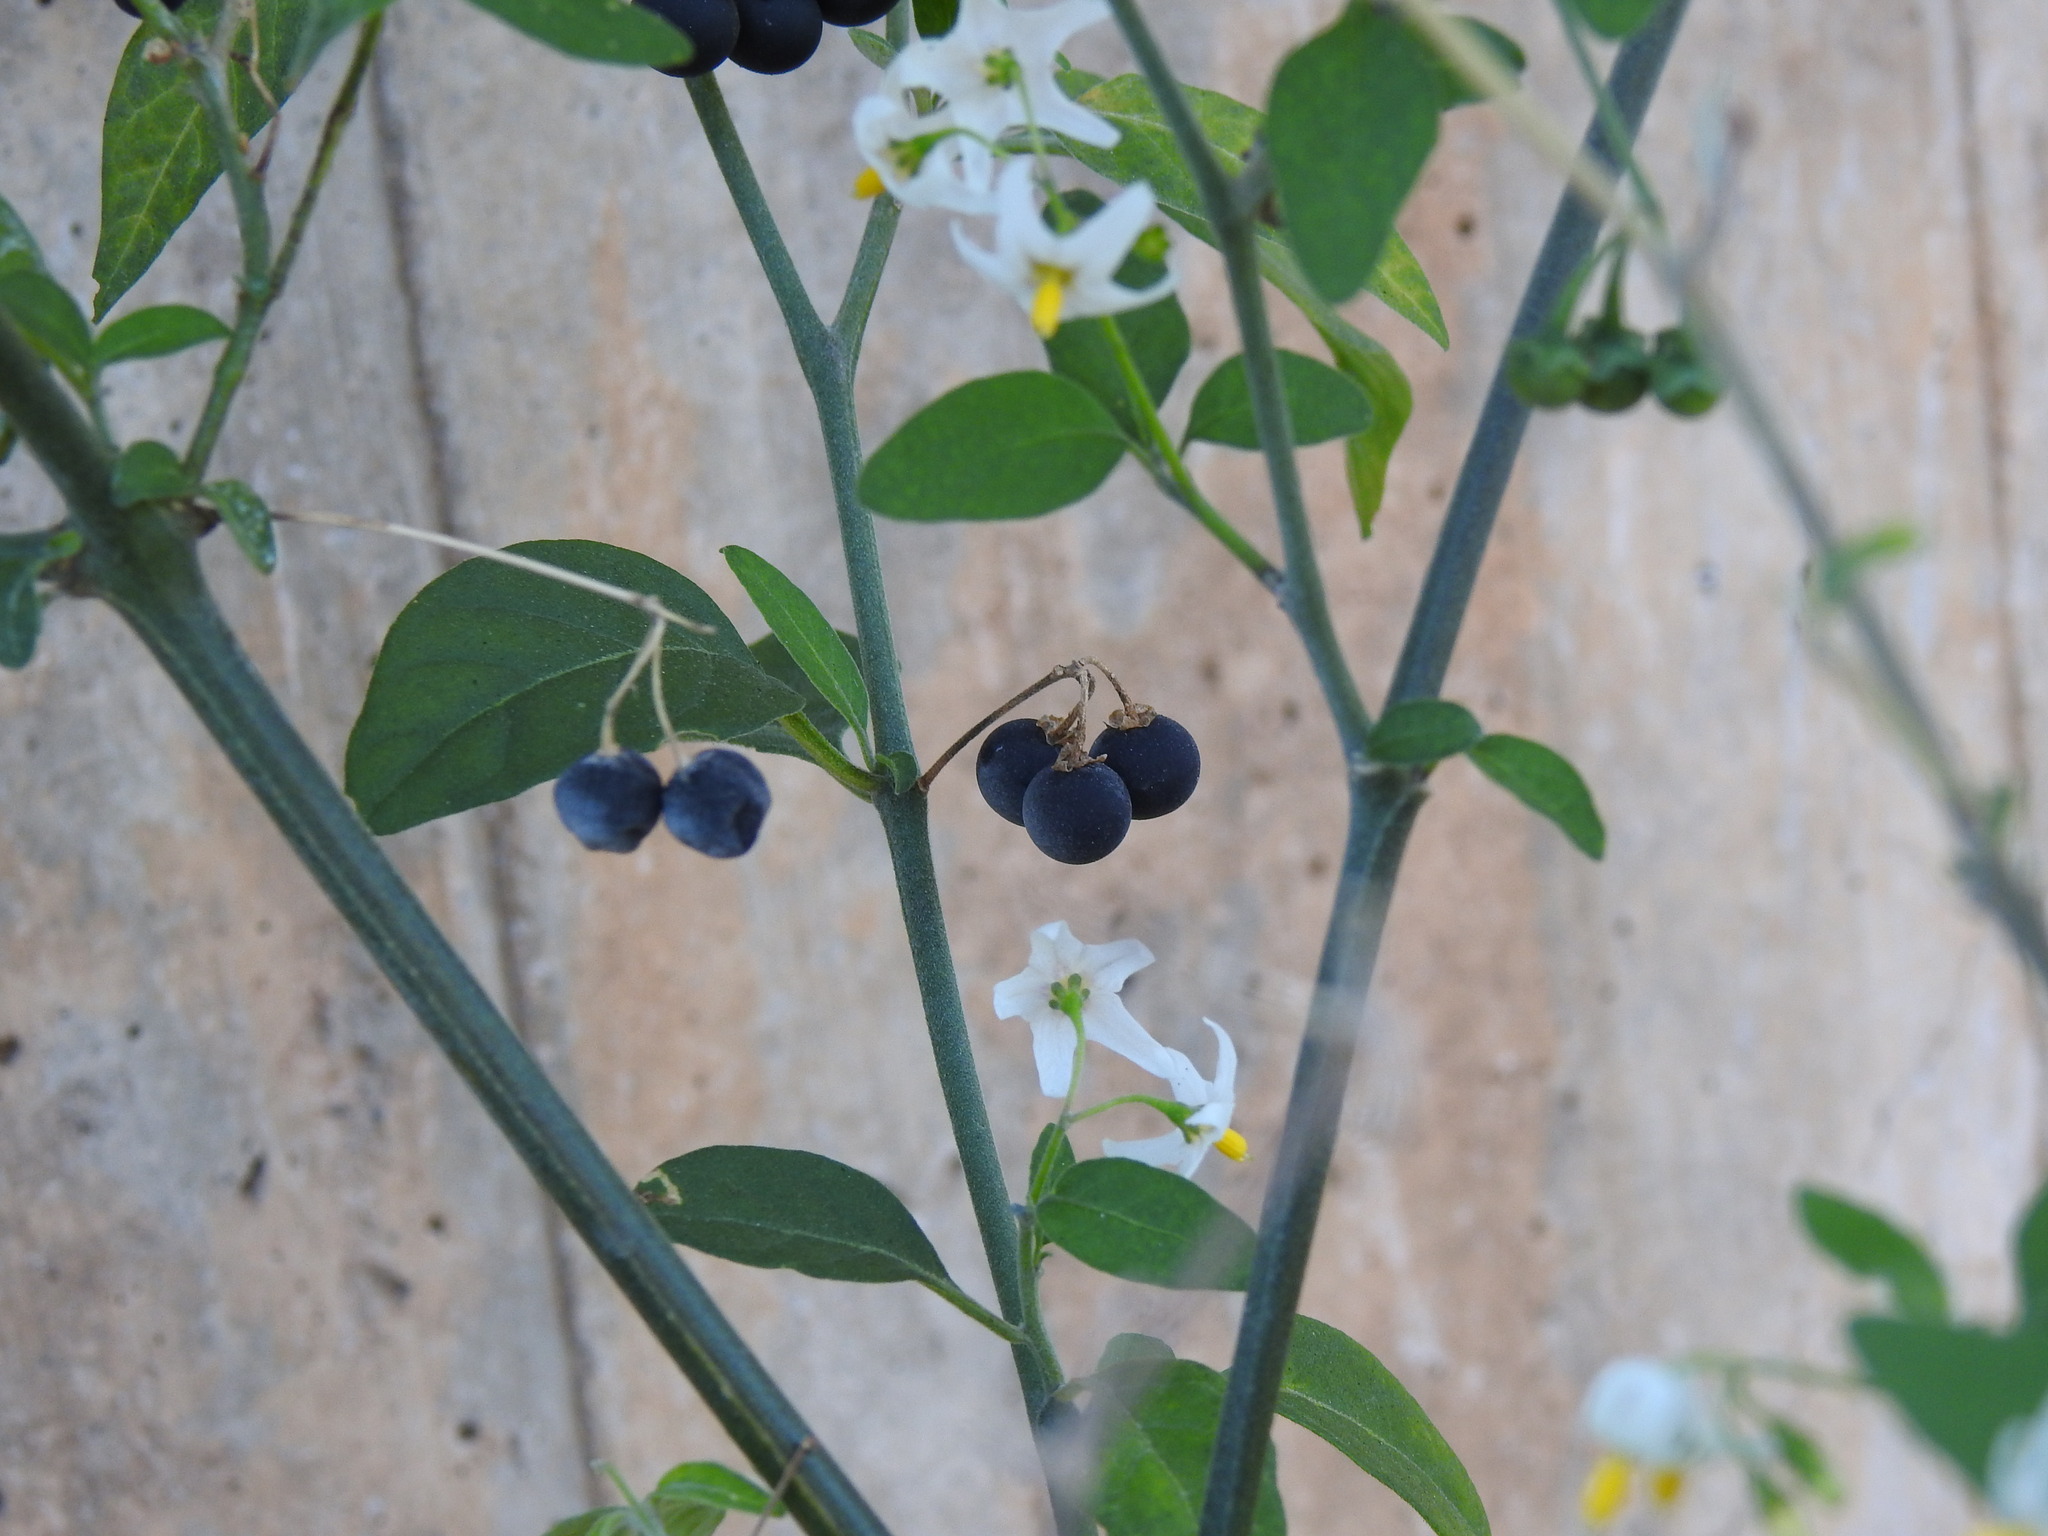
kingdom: Plantae
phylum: Tracheophyta
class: Magnoliopsida
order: Solanales
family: Solanaceae
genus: Solanum
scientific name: Solanum chenopodioides
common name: Tall nightshade
